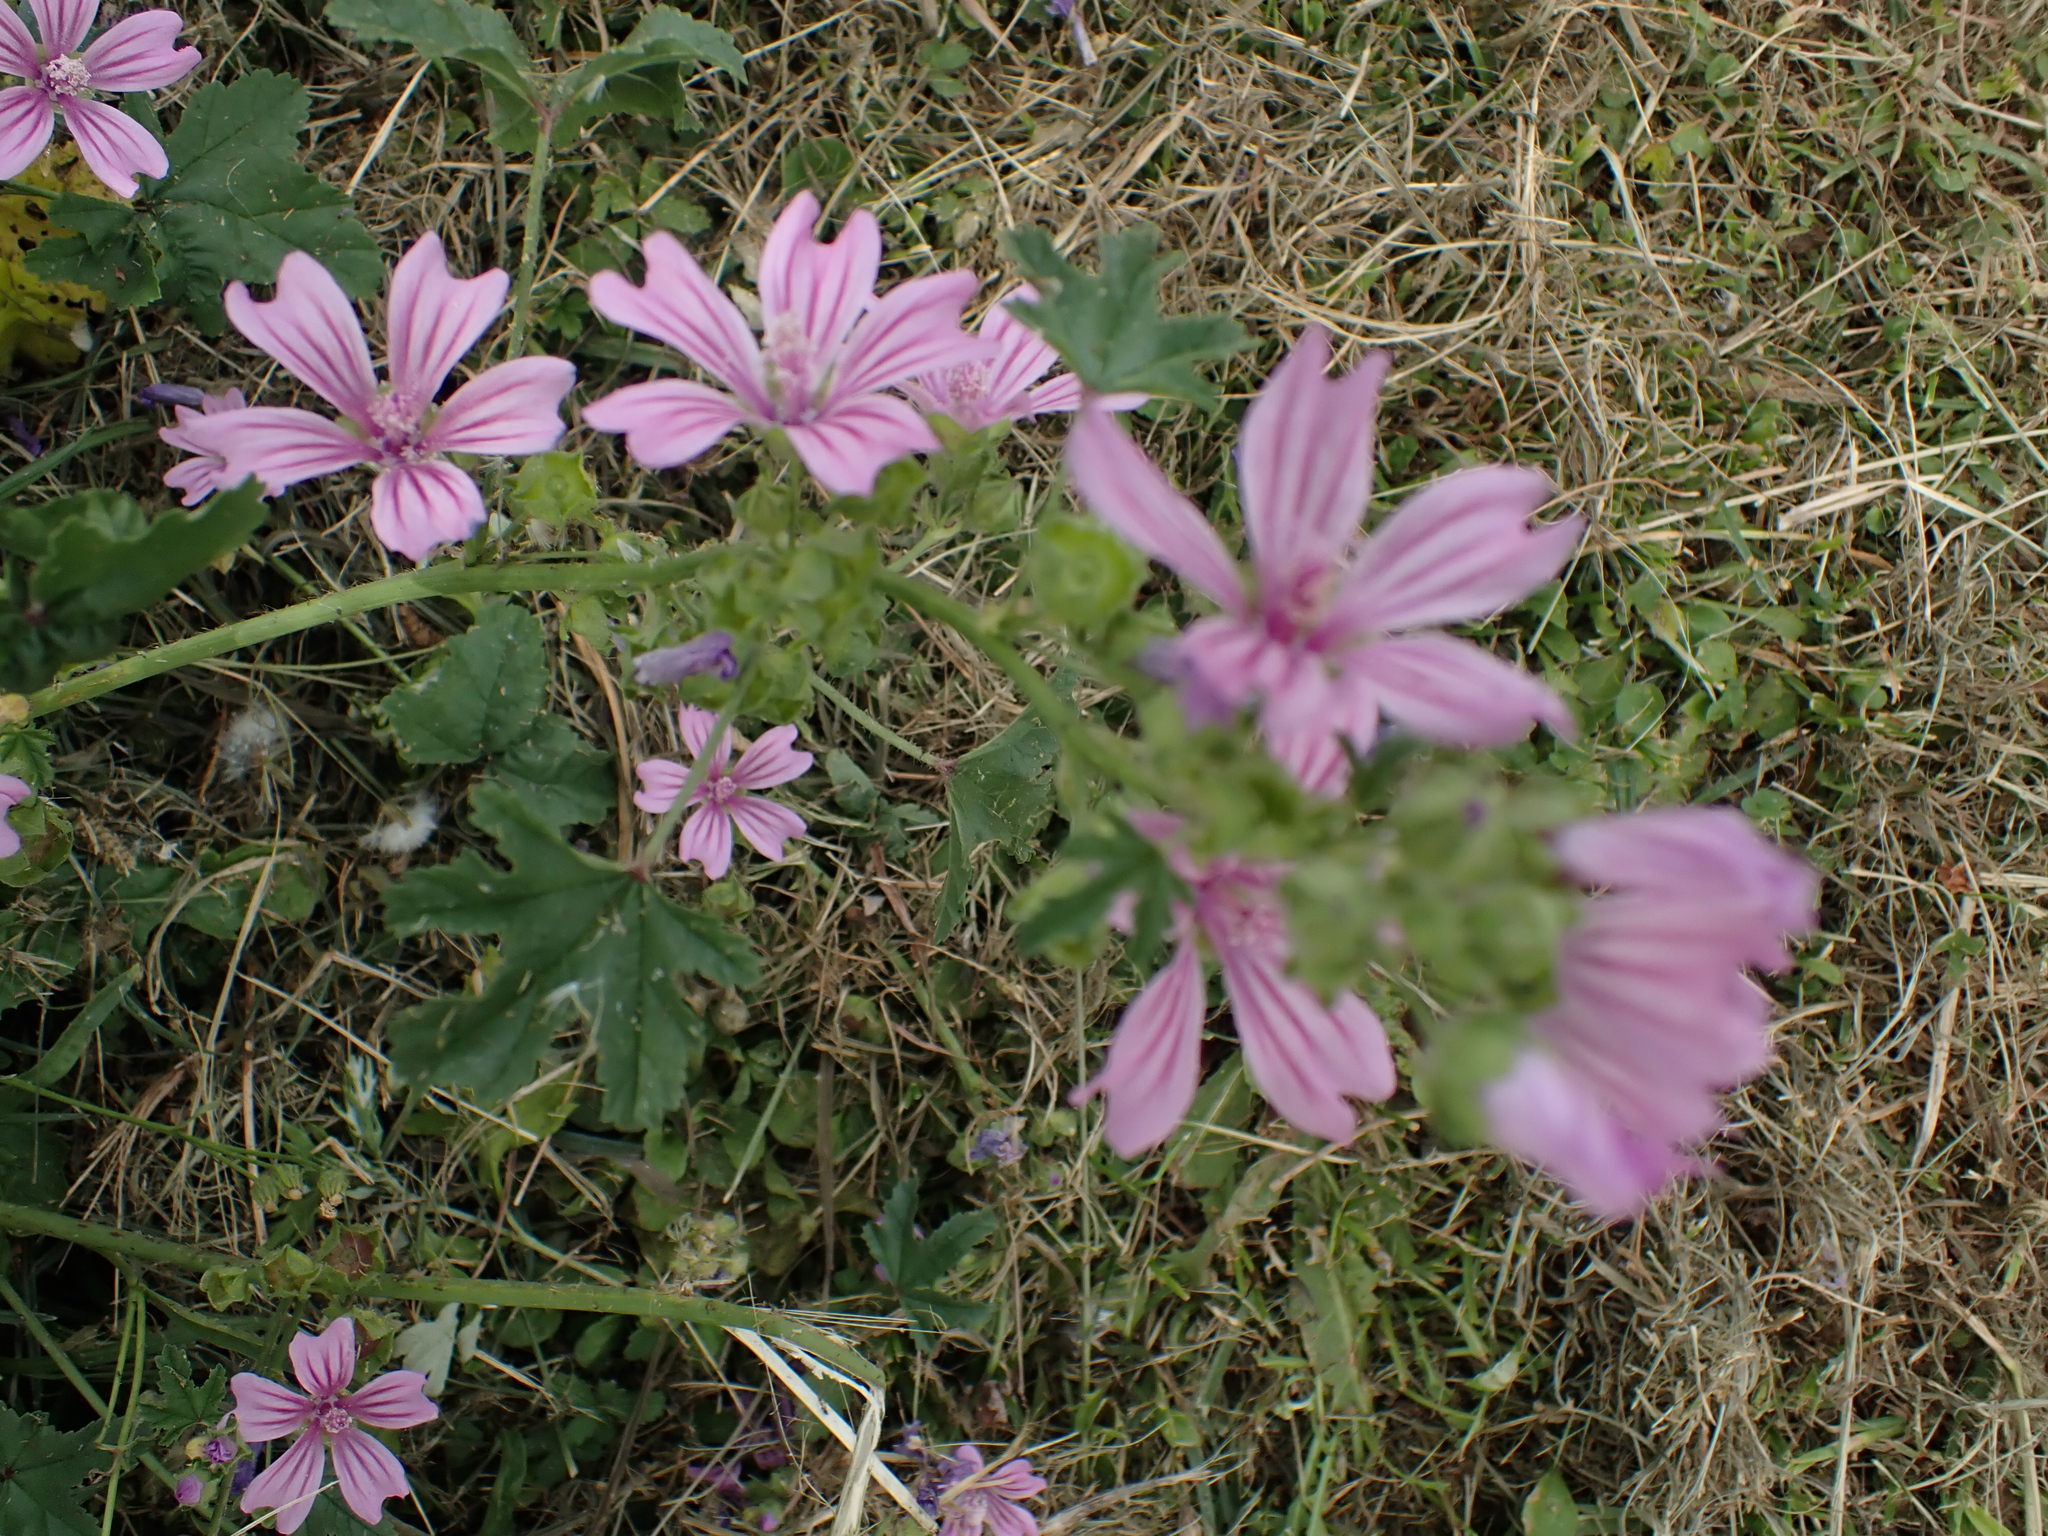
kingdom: Plantae
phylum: Tracheophyta
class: Magnoliopsida
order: Malvales
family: Malvaceae
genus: Malva
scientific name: Malva sylvestris
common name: Common mallow
